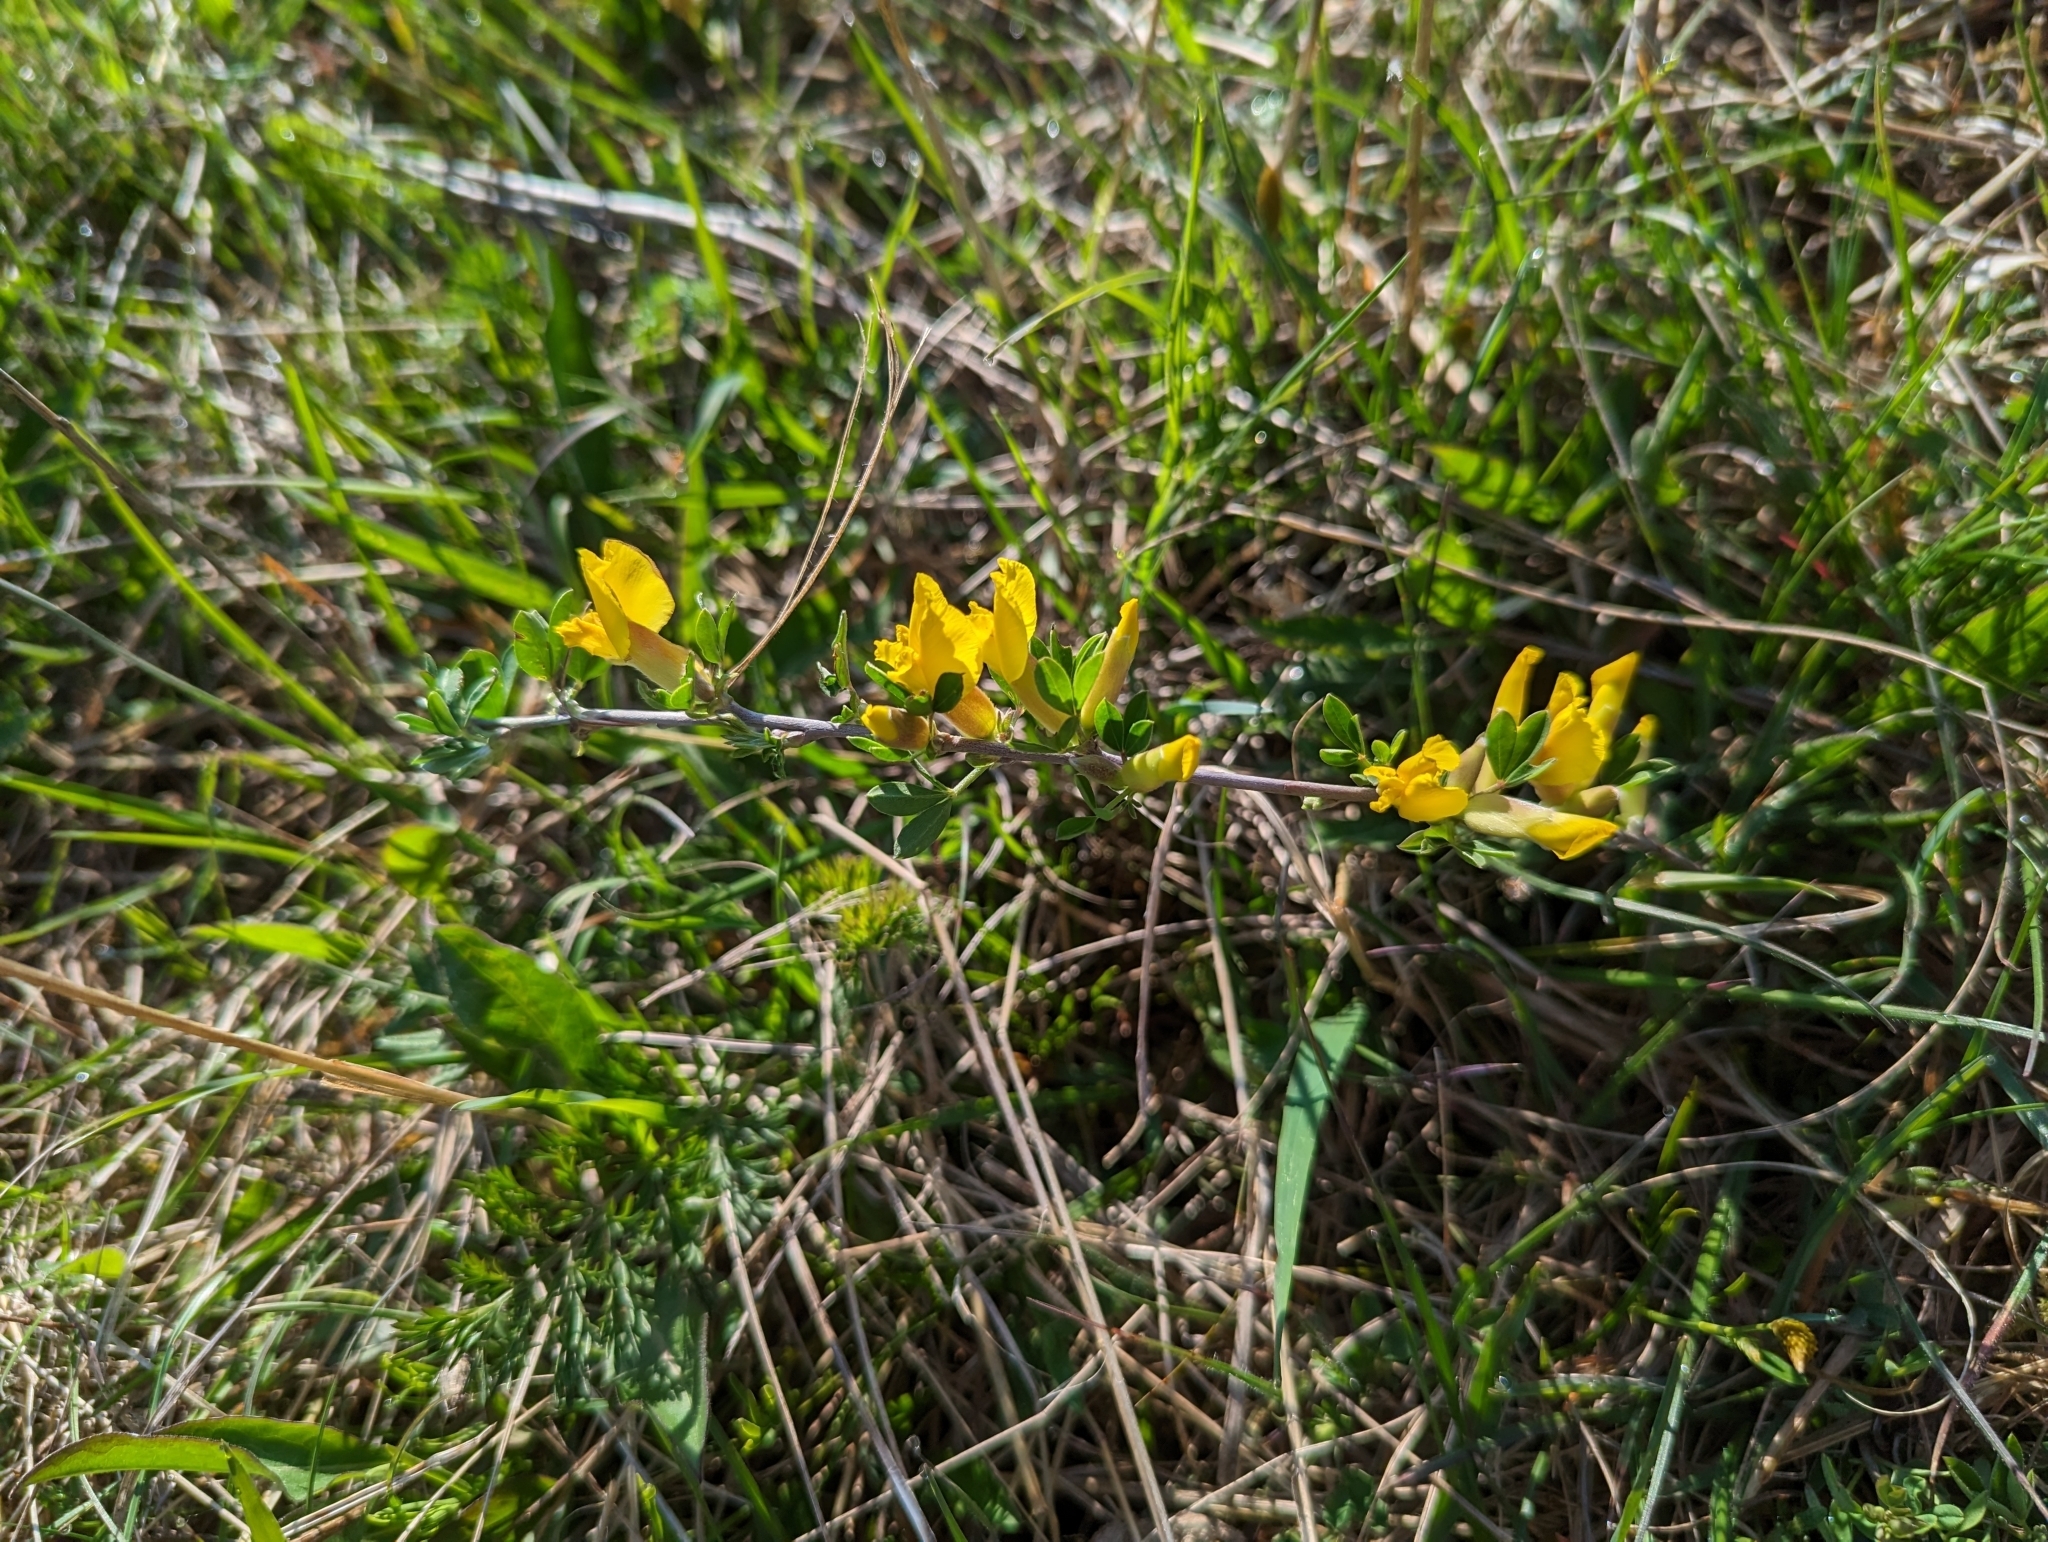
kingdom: Plantae
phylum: Tracheophyta
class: Magnoliopsida
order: Fabales
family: Fabaceae
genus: Chamaecytisus
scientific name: Chamaecytisus ratisbonensis
